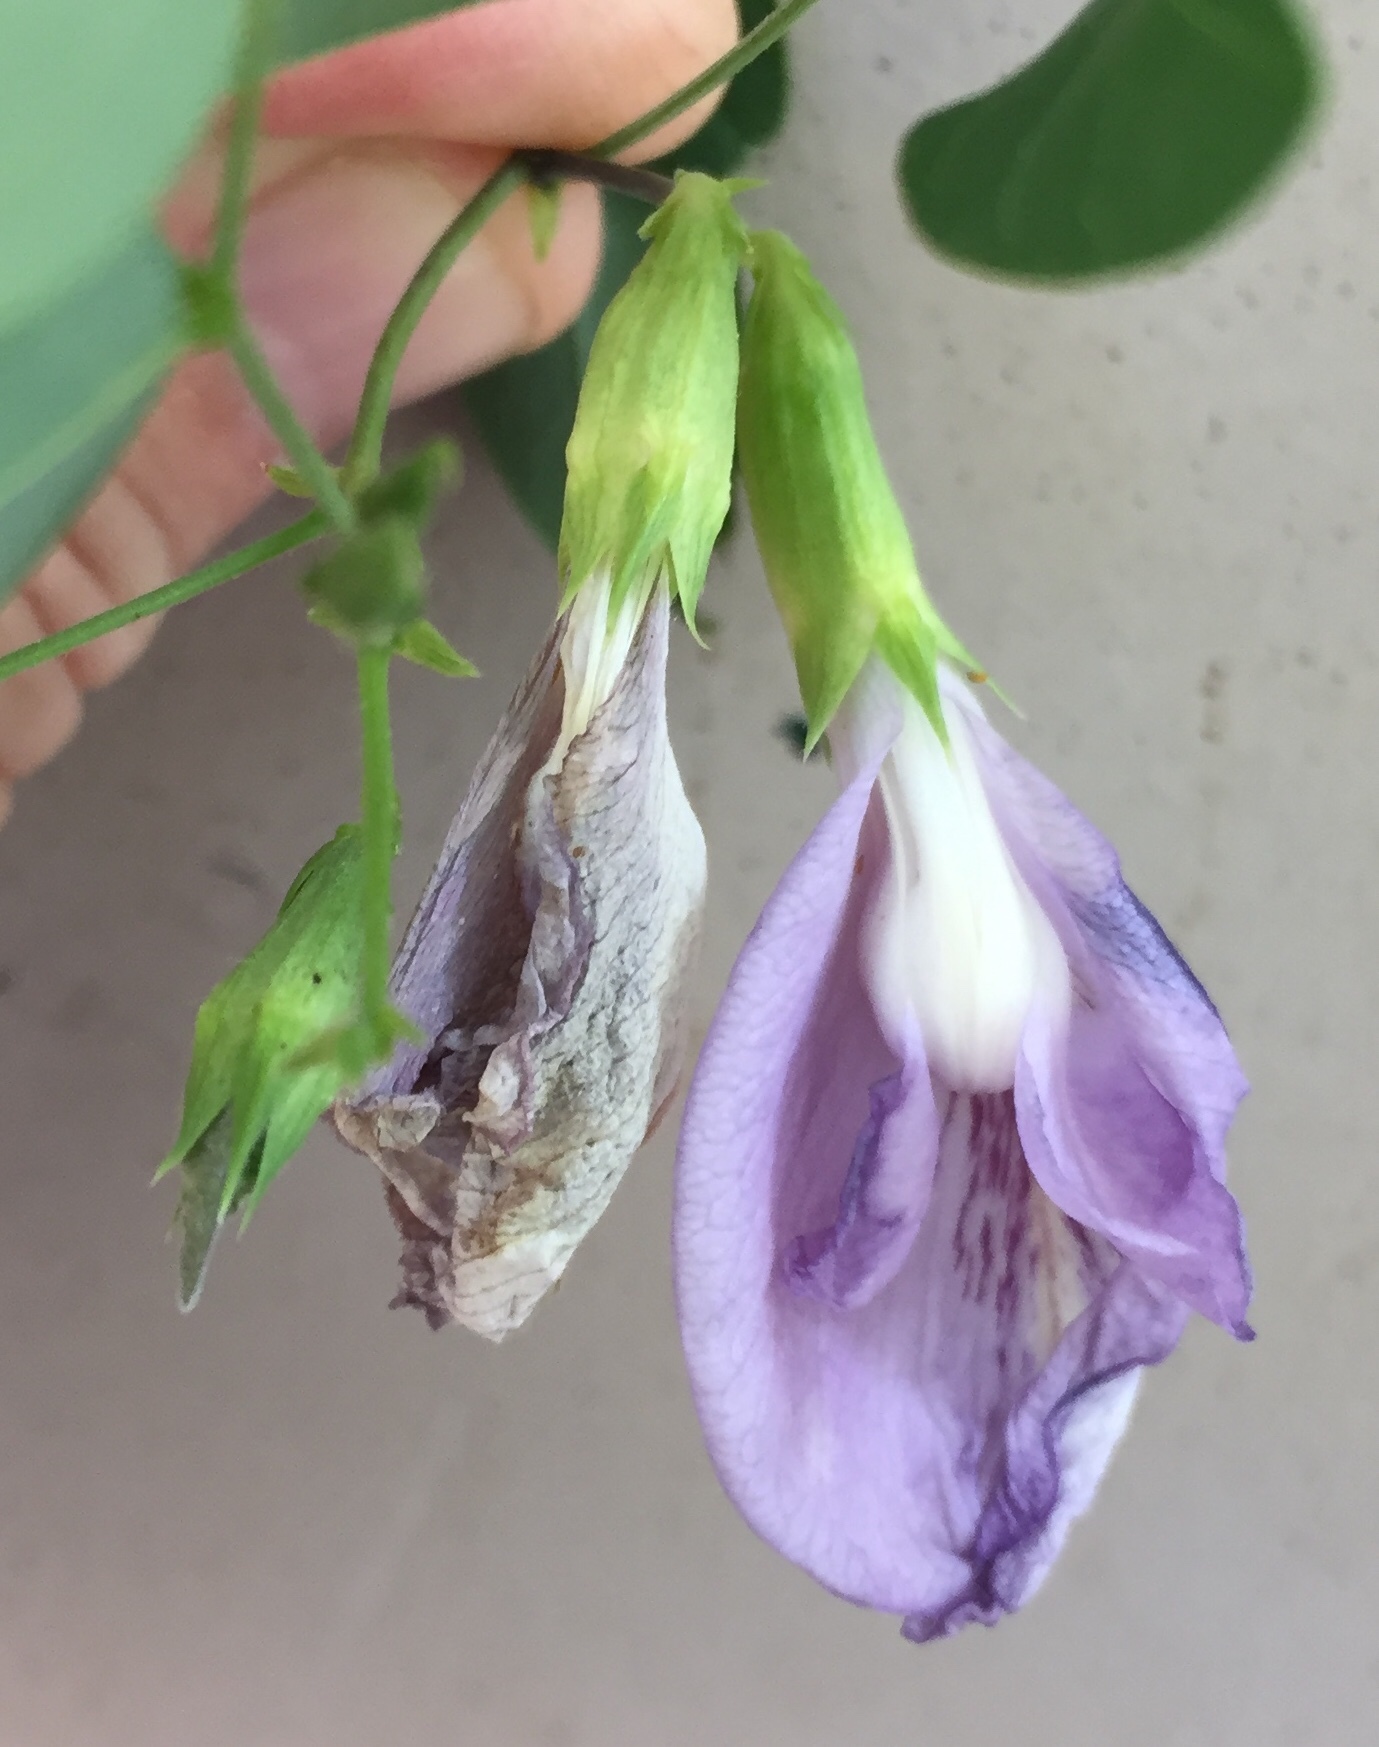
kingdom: Plantae
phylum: Tracheophyta
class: Magnoliopsida
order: Fabales
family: Fabaceae
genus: Clitoria
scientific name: Clitoria mariana
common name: Butterfly-pea
